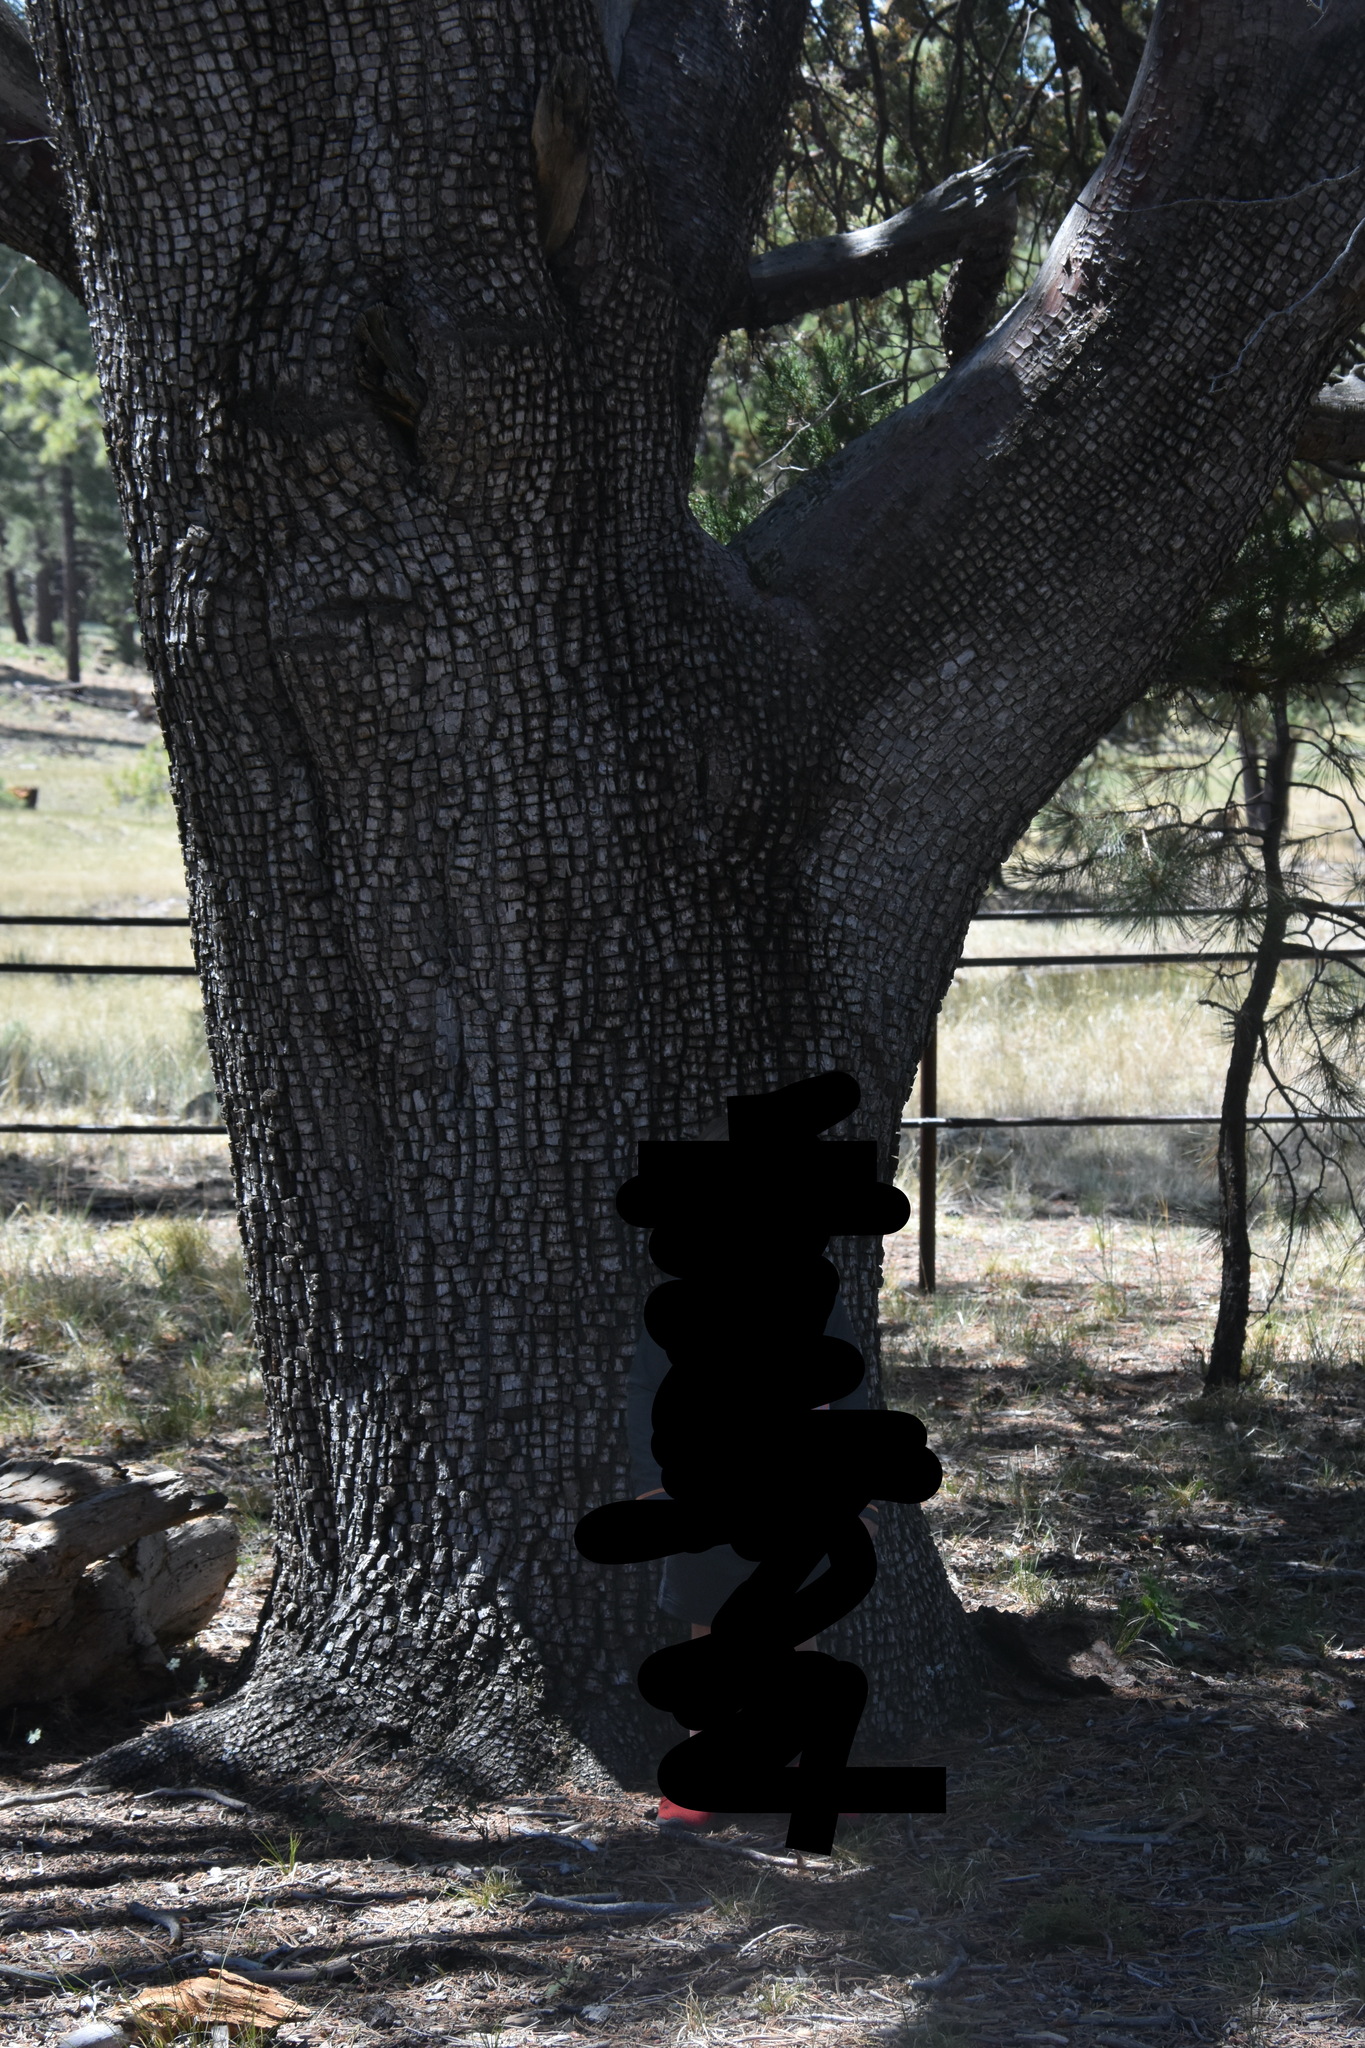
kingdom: Plantae
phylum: Tracheophyta
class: Pinopsida
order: Pinales
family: Cupressaceae
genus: Juniperus
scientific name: Juniperus deppeana
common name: Alligator juniper
